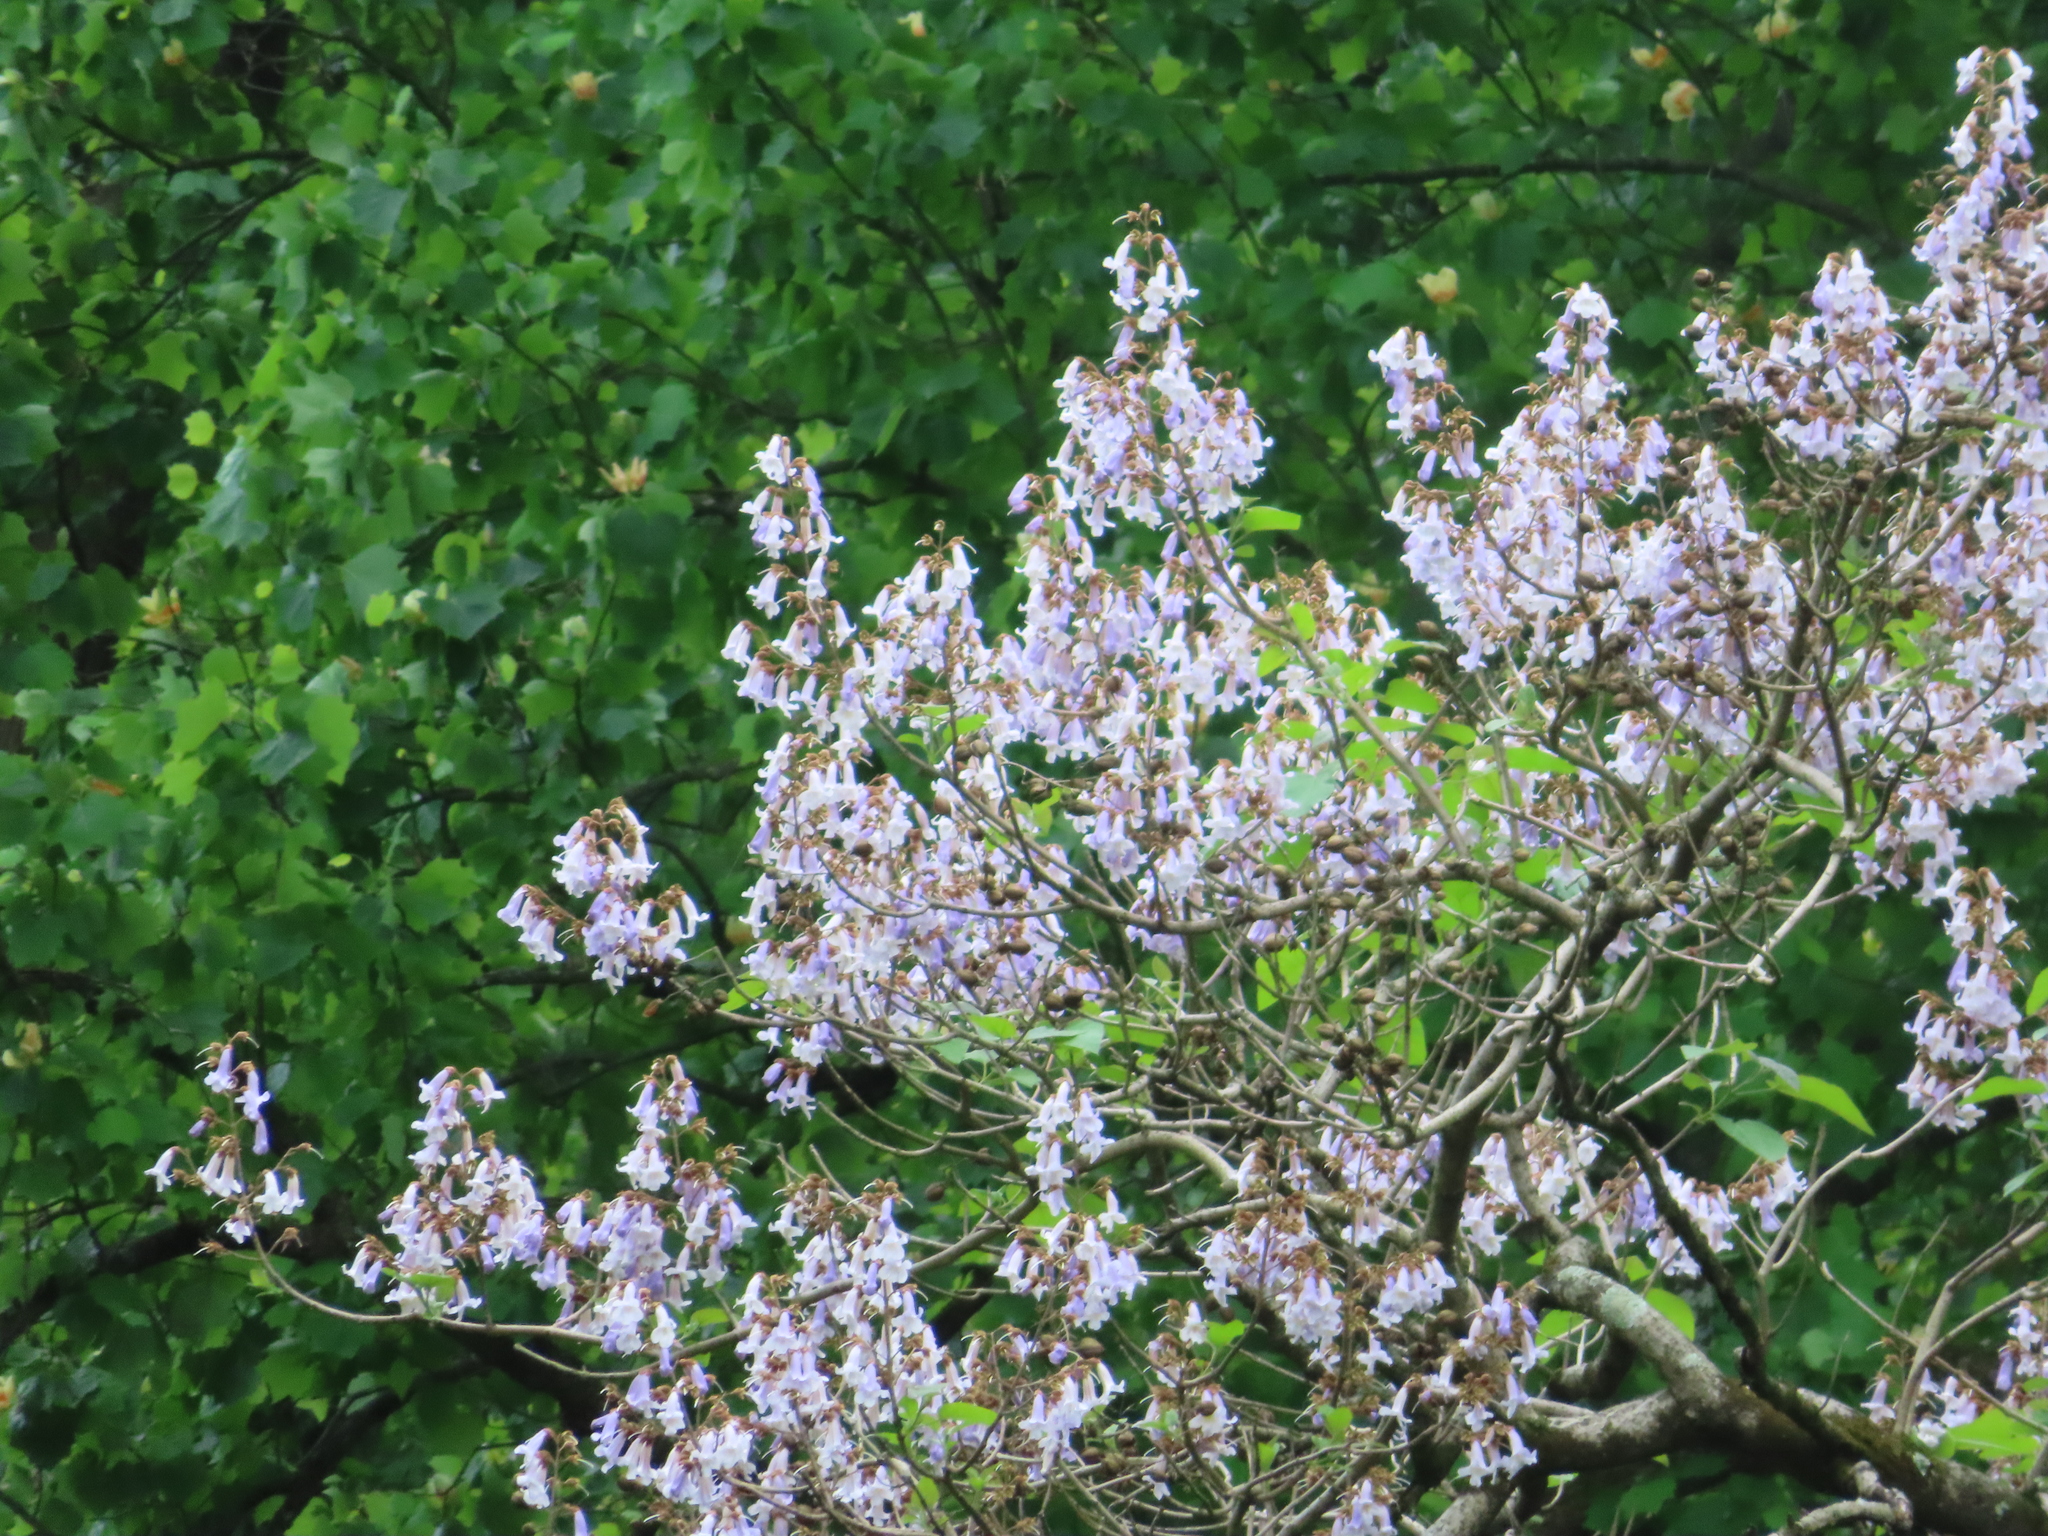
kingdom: Plantae
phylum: Tracheophyta
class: Magnoliopsida
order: Lamiales
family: Paulowniaceae
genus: Paulownia
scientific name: Paulownia tomentosa
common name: Foxglove-tree
